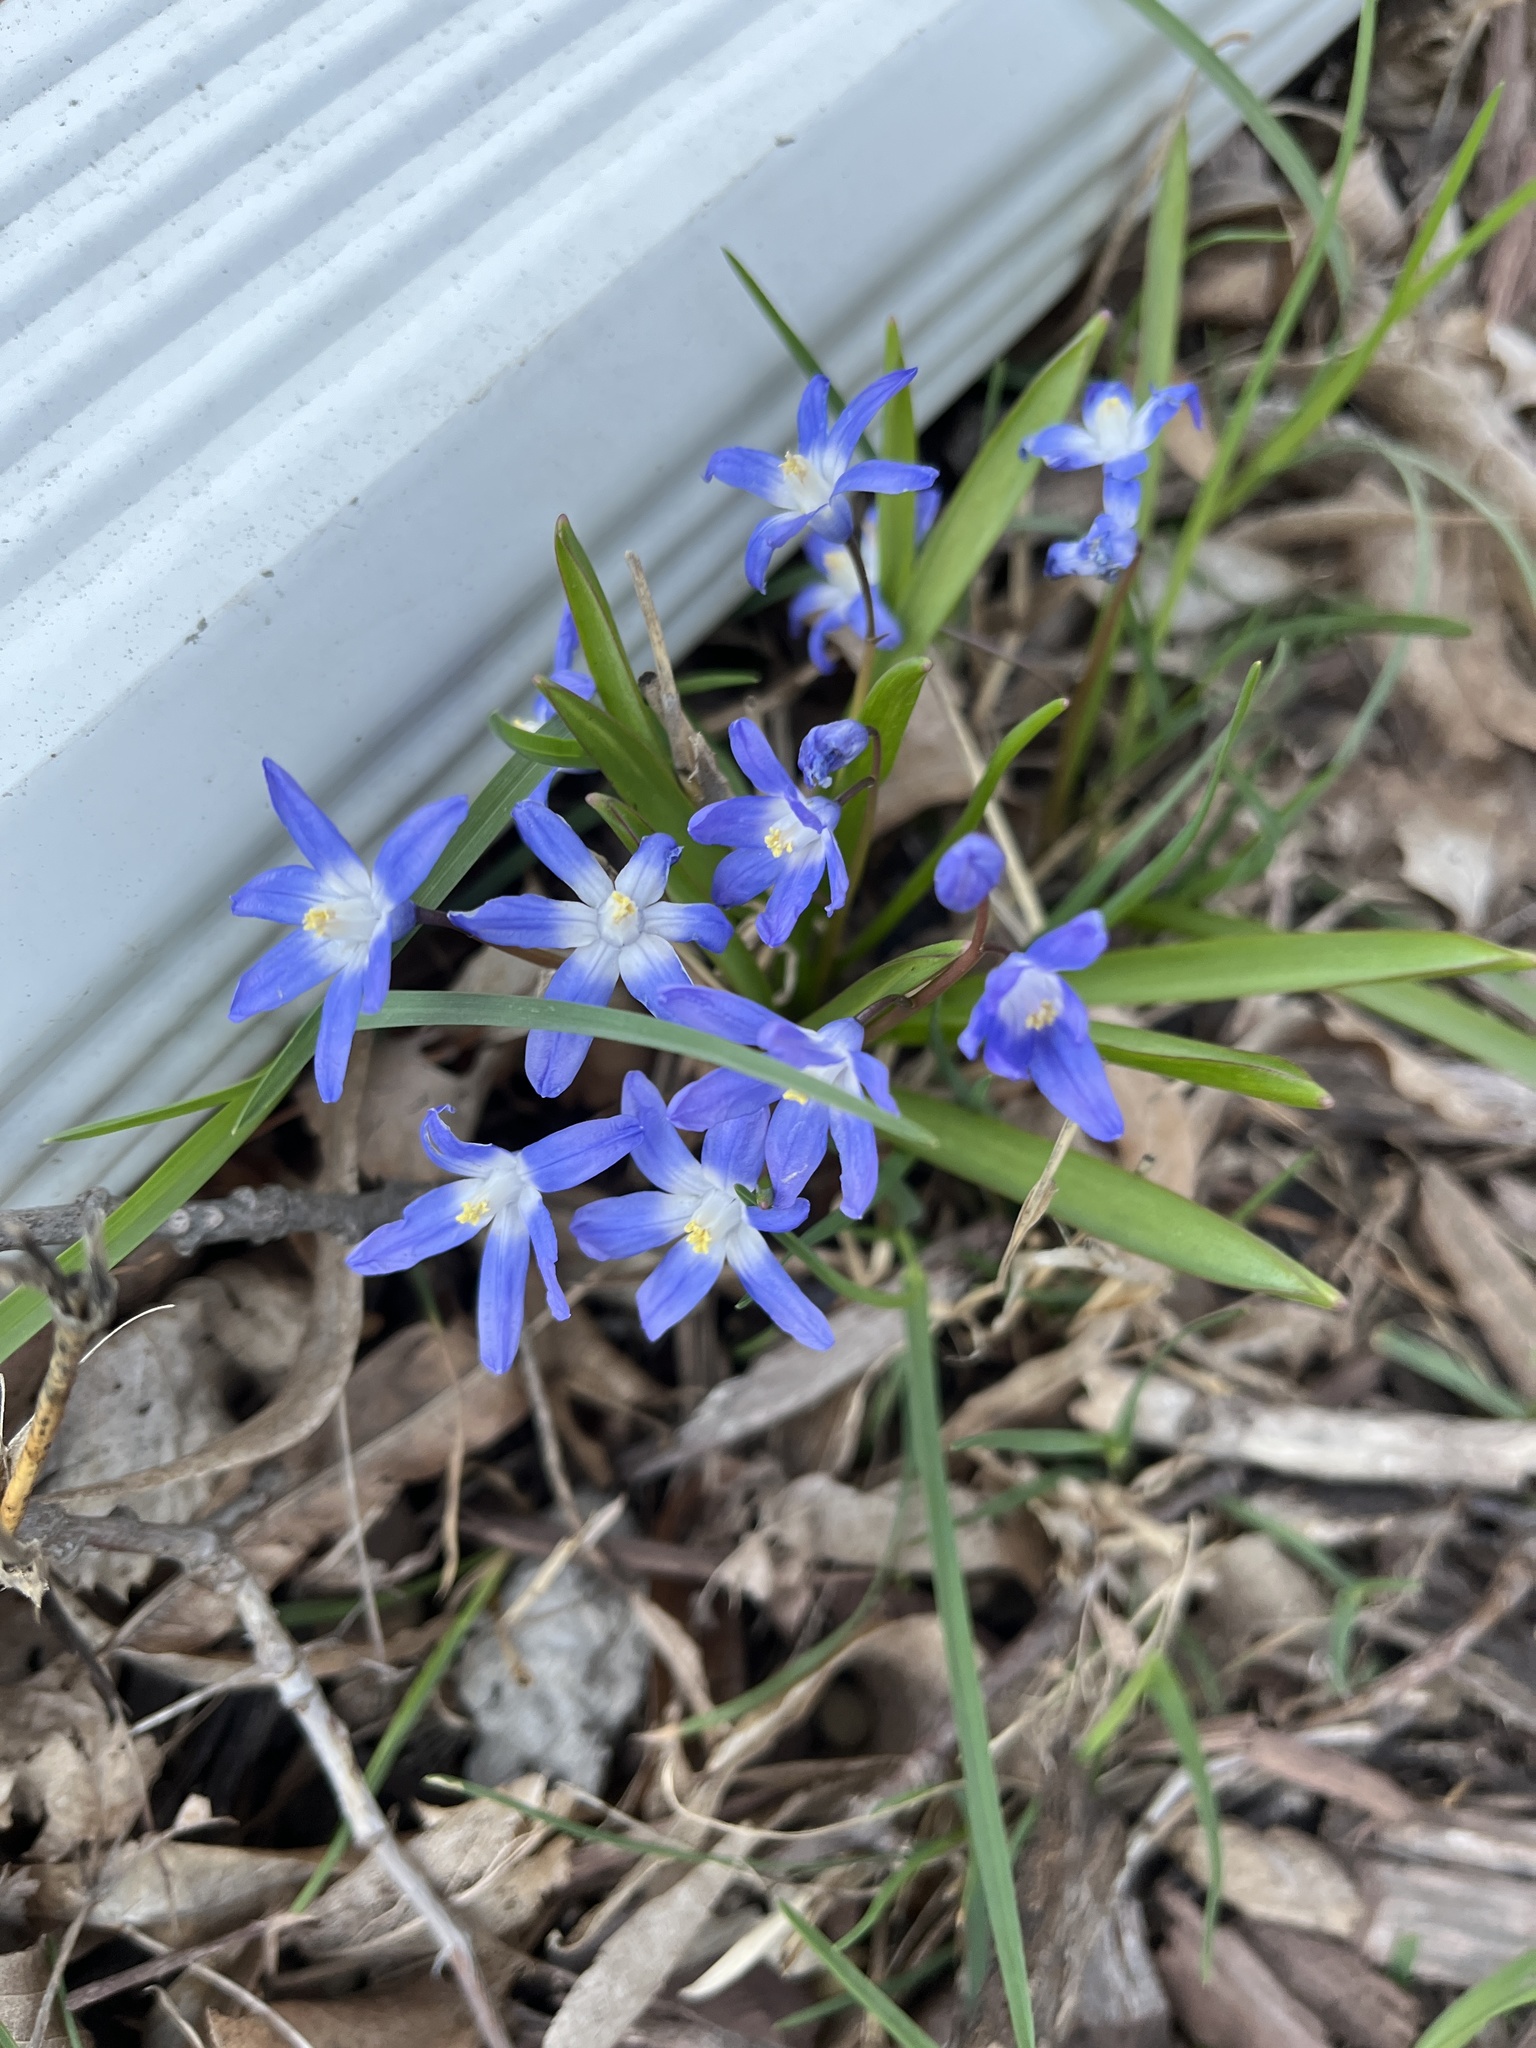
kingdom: Plantae
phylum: Tracheophyta
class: Liliopsida
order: Asparagales
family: Asparagaceae
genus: Scilla
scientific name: Scilla forbesii
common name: Glory-of-the-snow
